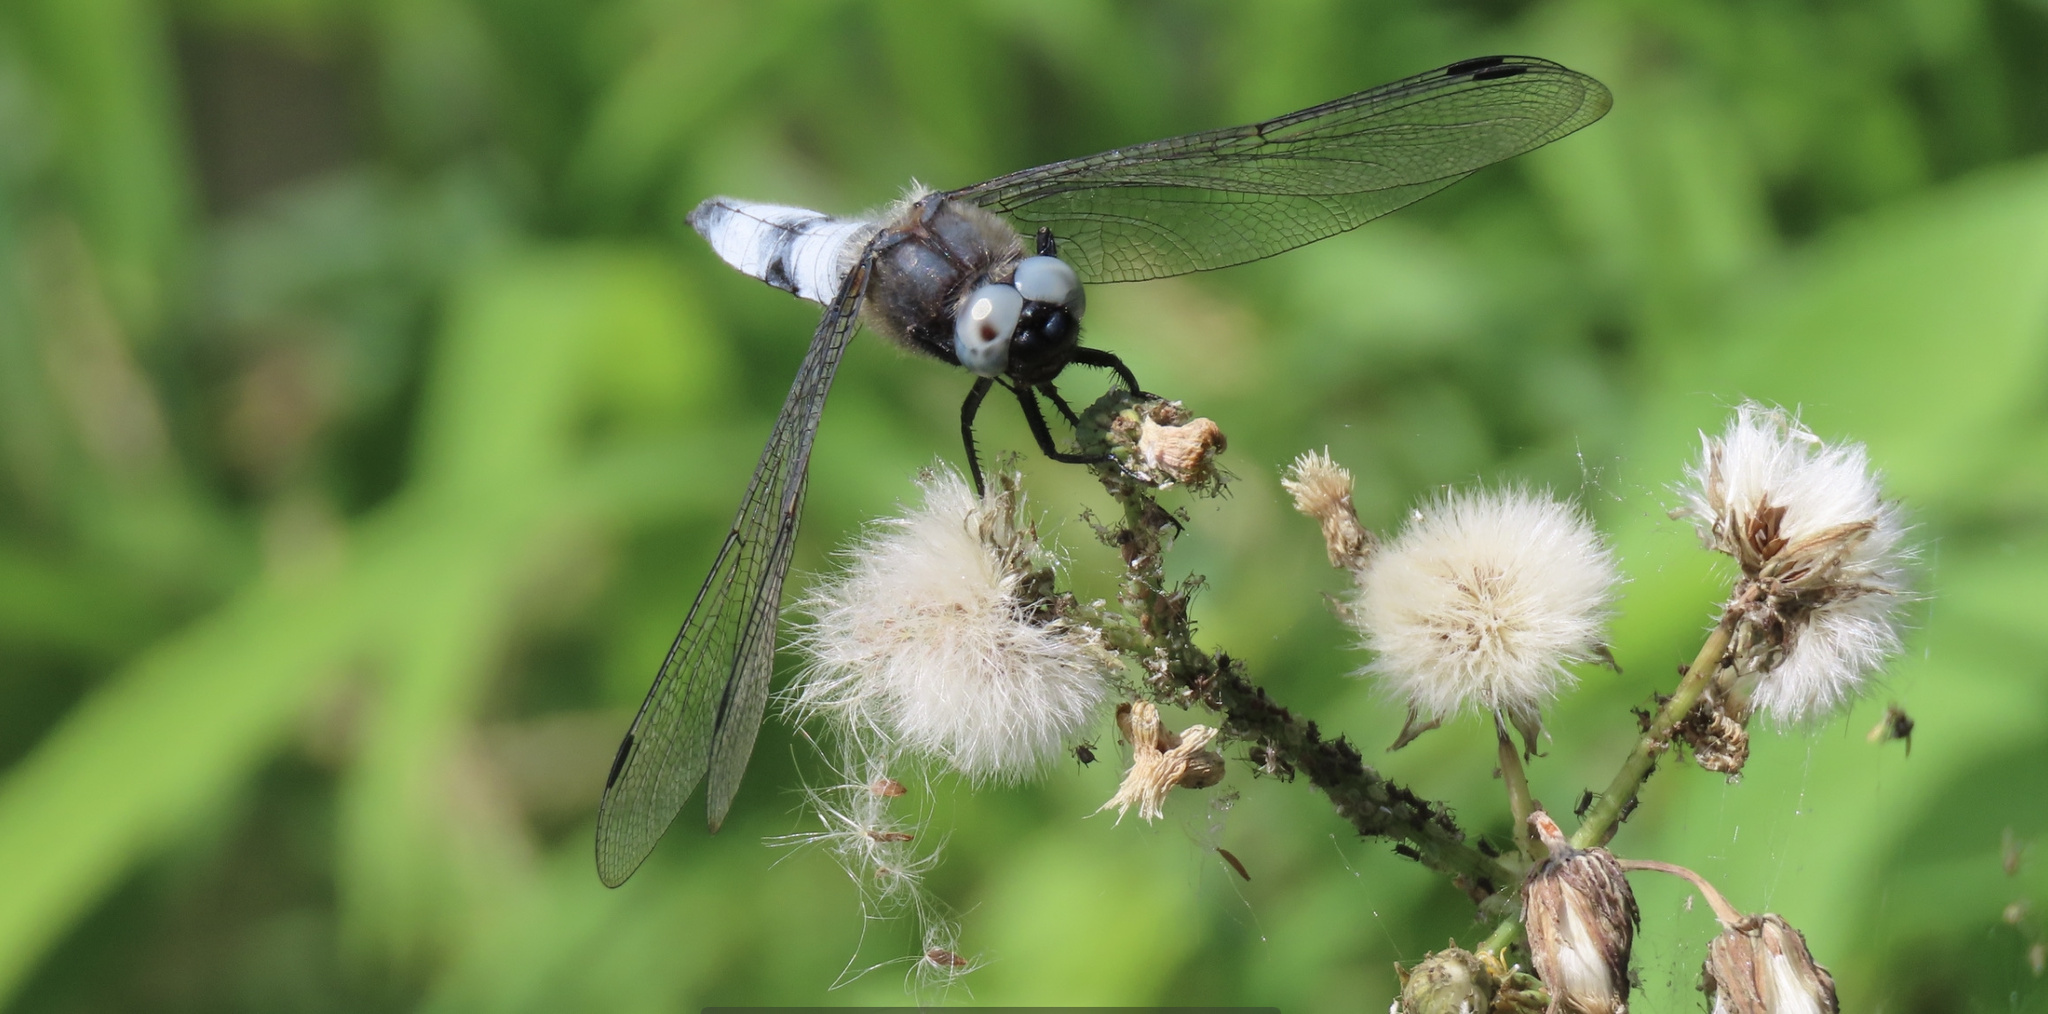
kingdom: Animalia
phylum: Arthropoda
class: Insecta
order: Odonata
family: Libellulidae
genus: Libellula
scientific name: Libellula fulva
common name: Blue chaser
